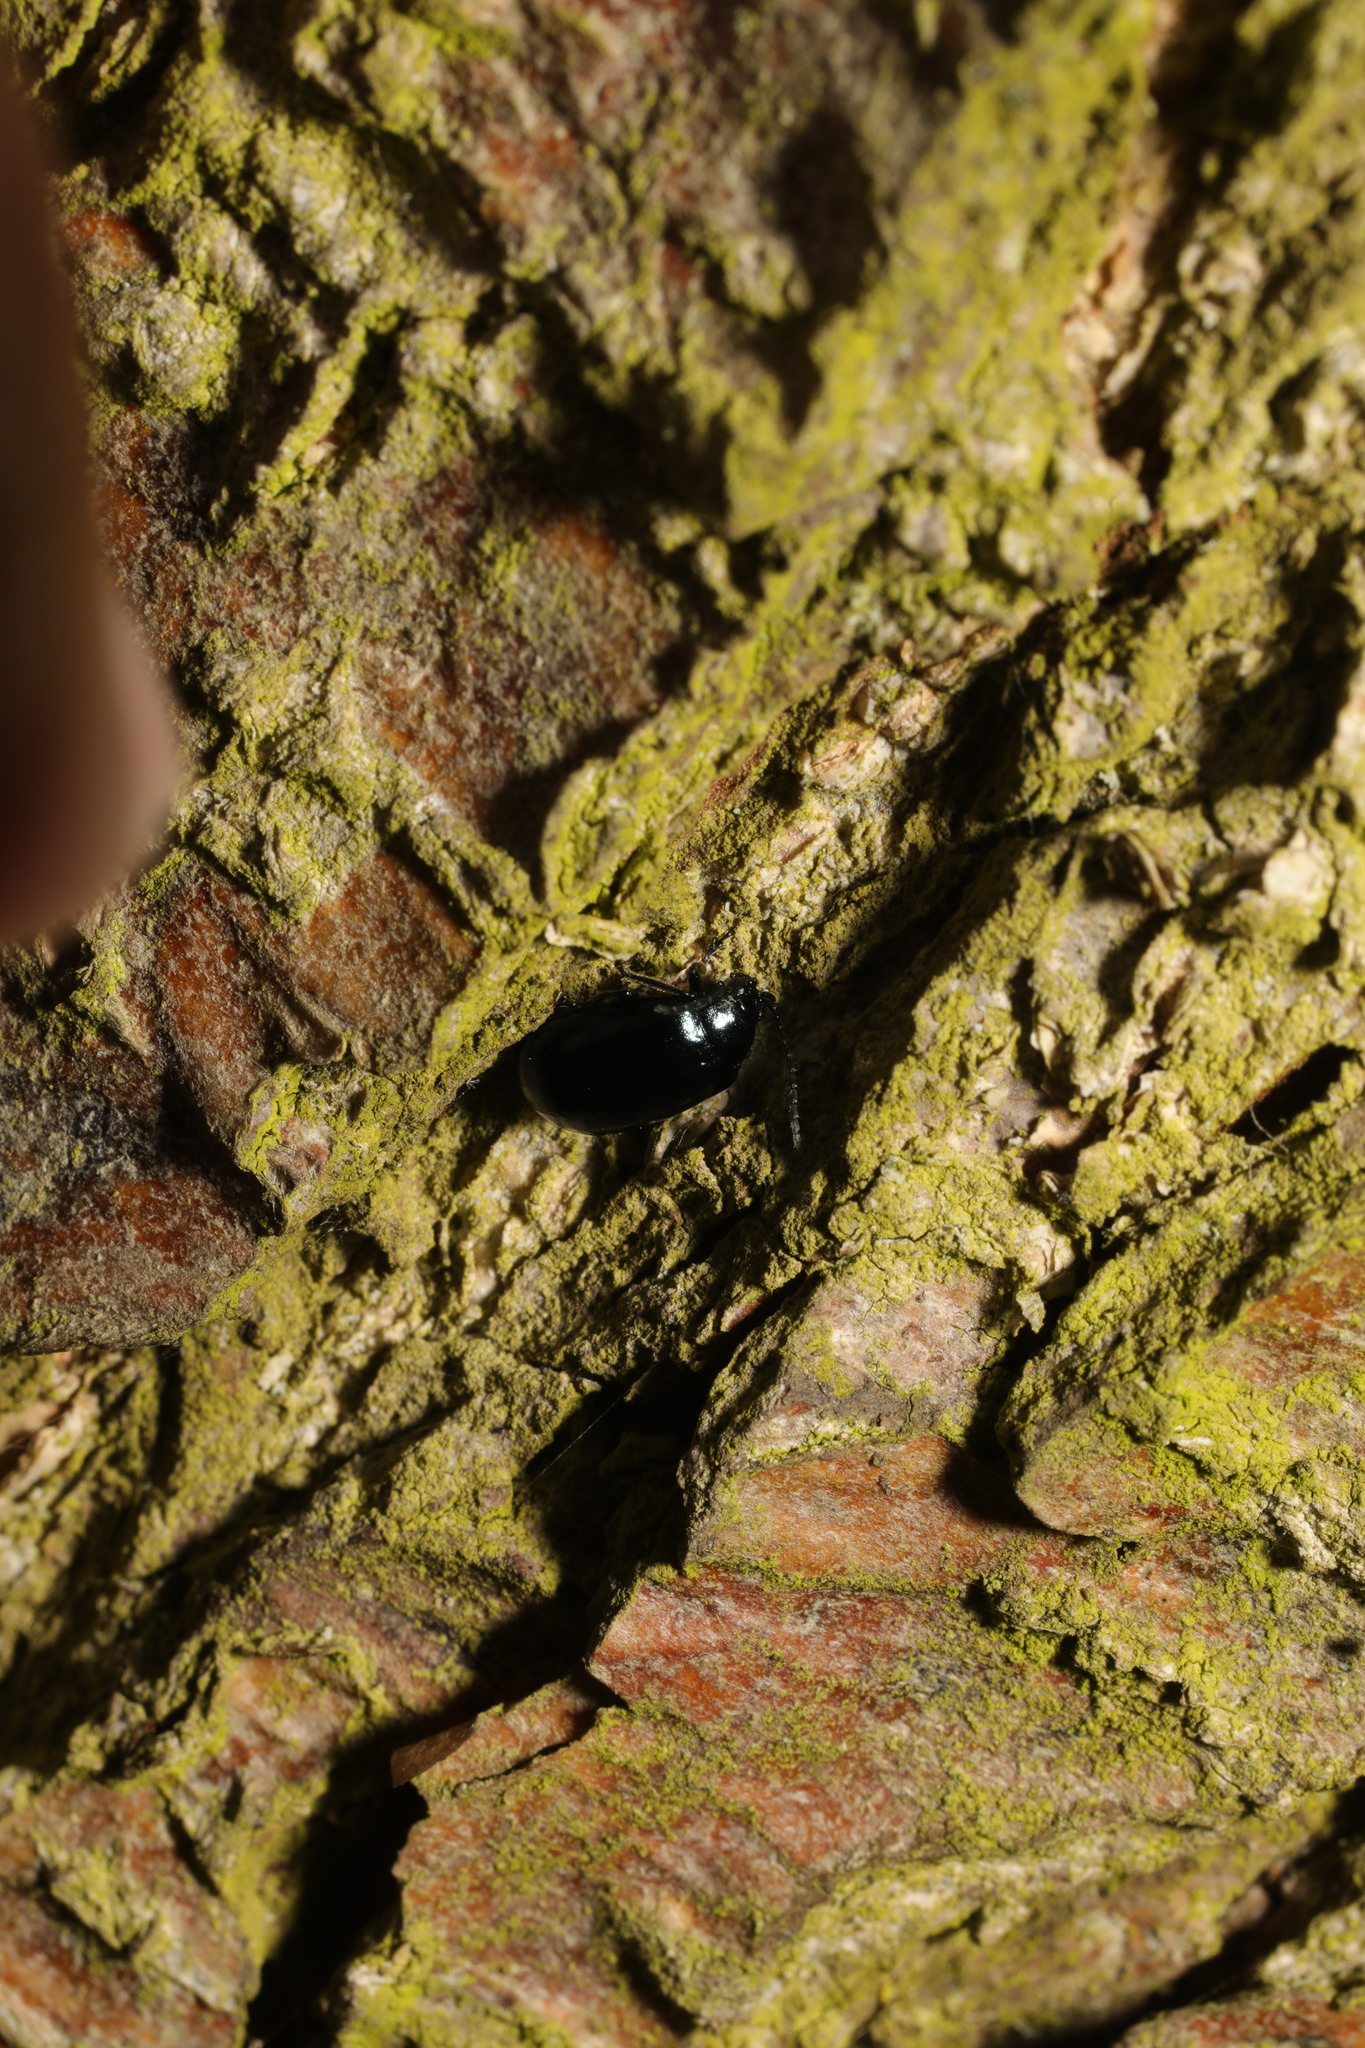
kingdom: Animalia
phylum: Arthropoda
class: Insecta
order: Coleoptera
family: Chrysomelidae
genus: Agelastica
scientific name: Agelastica alni
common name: Alder leaf beetle
